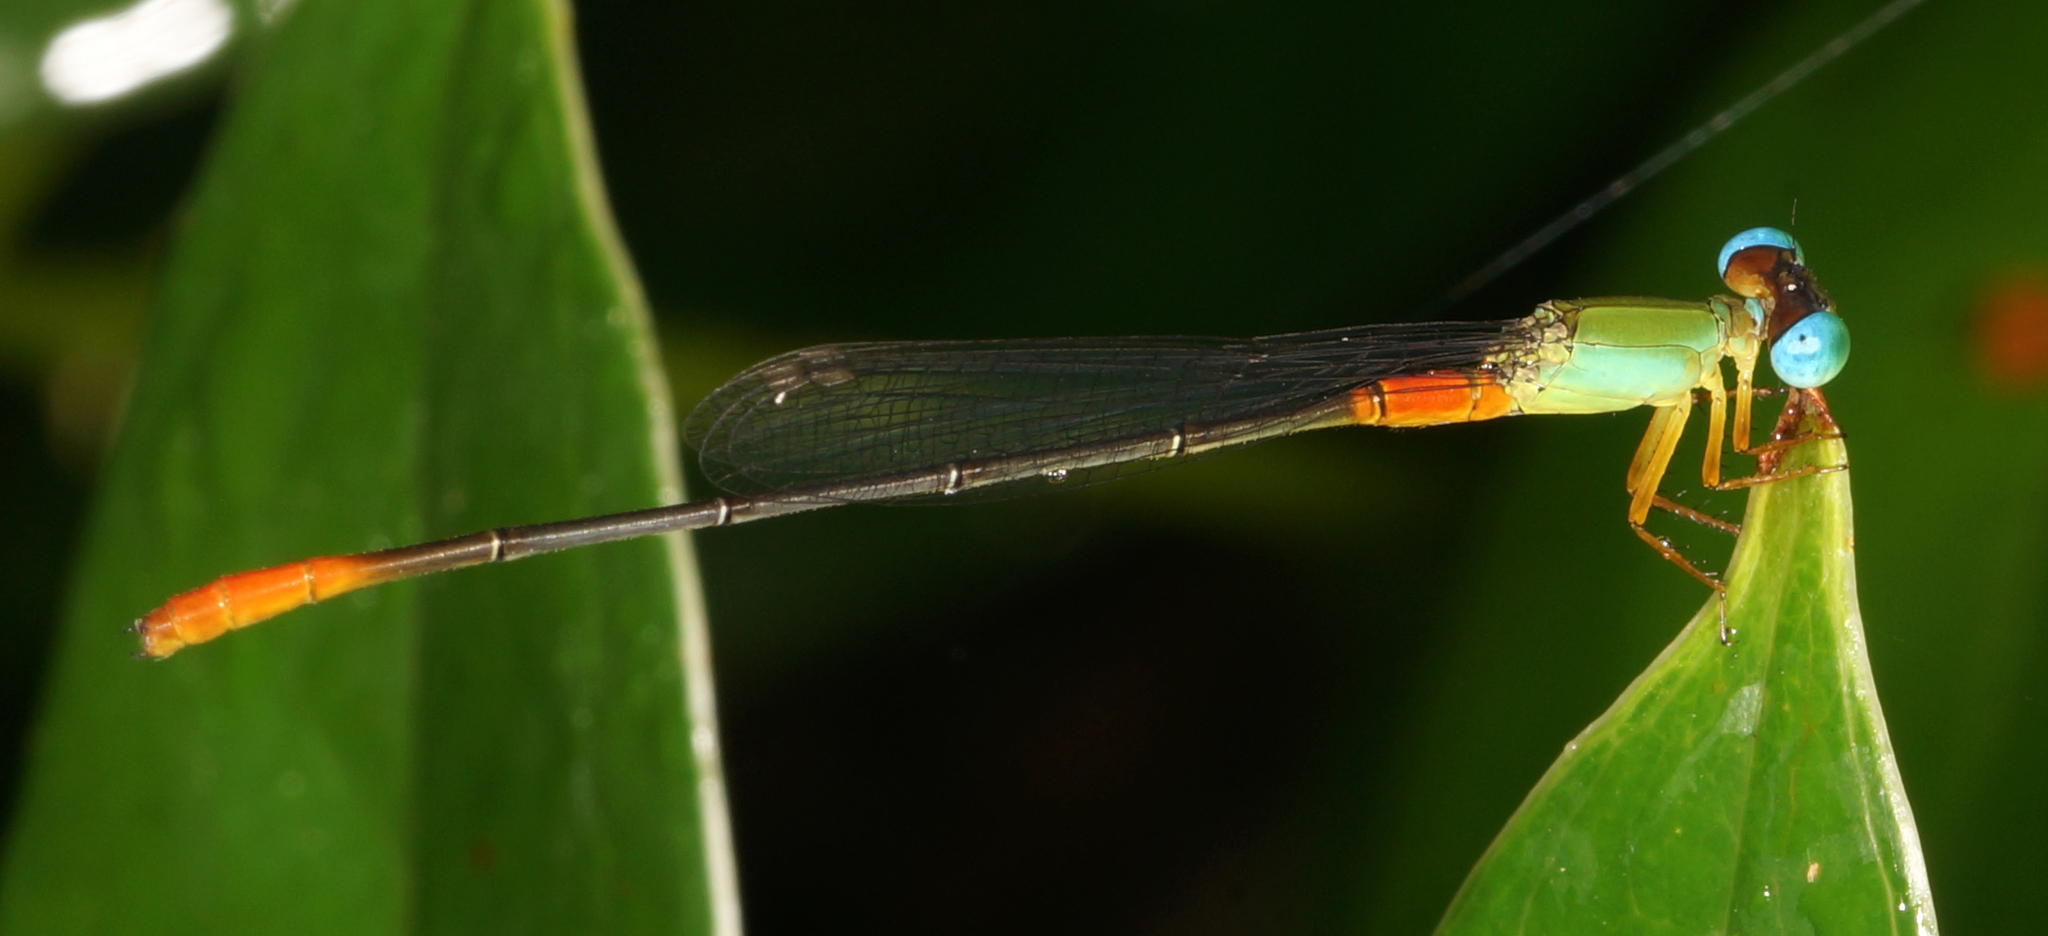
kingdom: Animalia
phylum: Arthropoda
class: Insecta
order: Odonata
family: Coenagrionidae
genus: Ceriagrion
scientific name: Ceriagrion cerinorubellum
